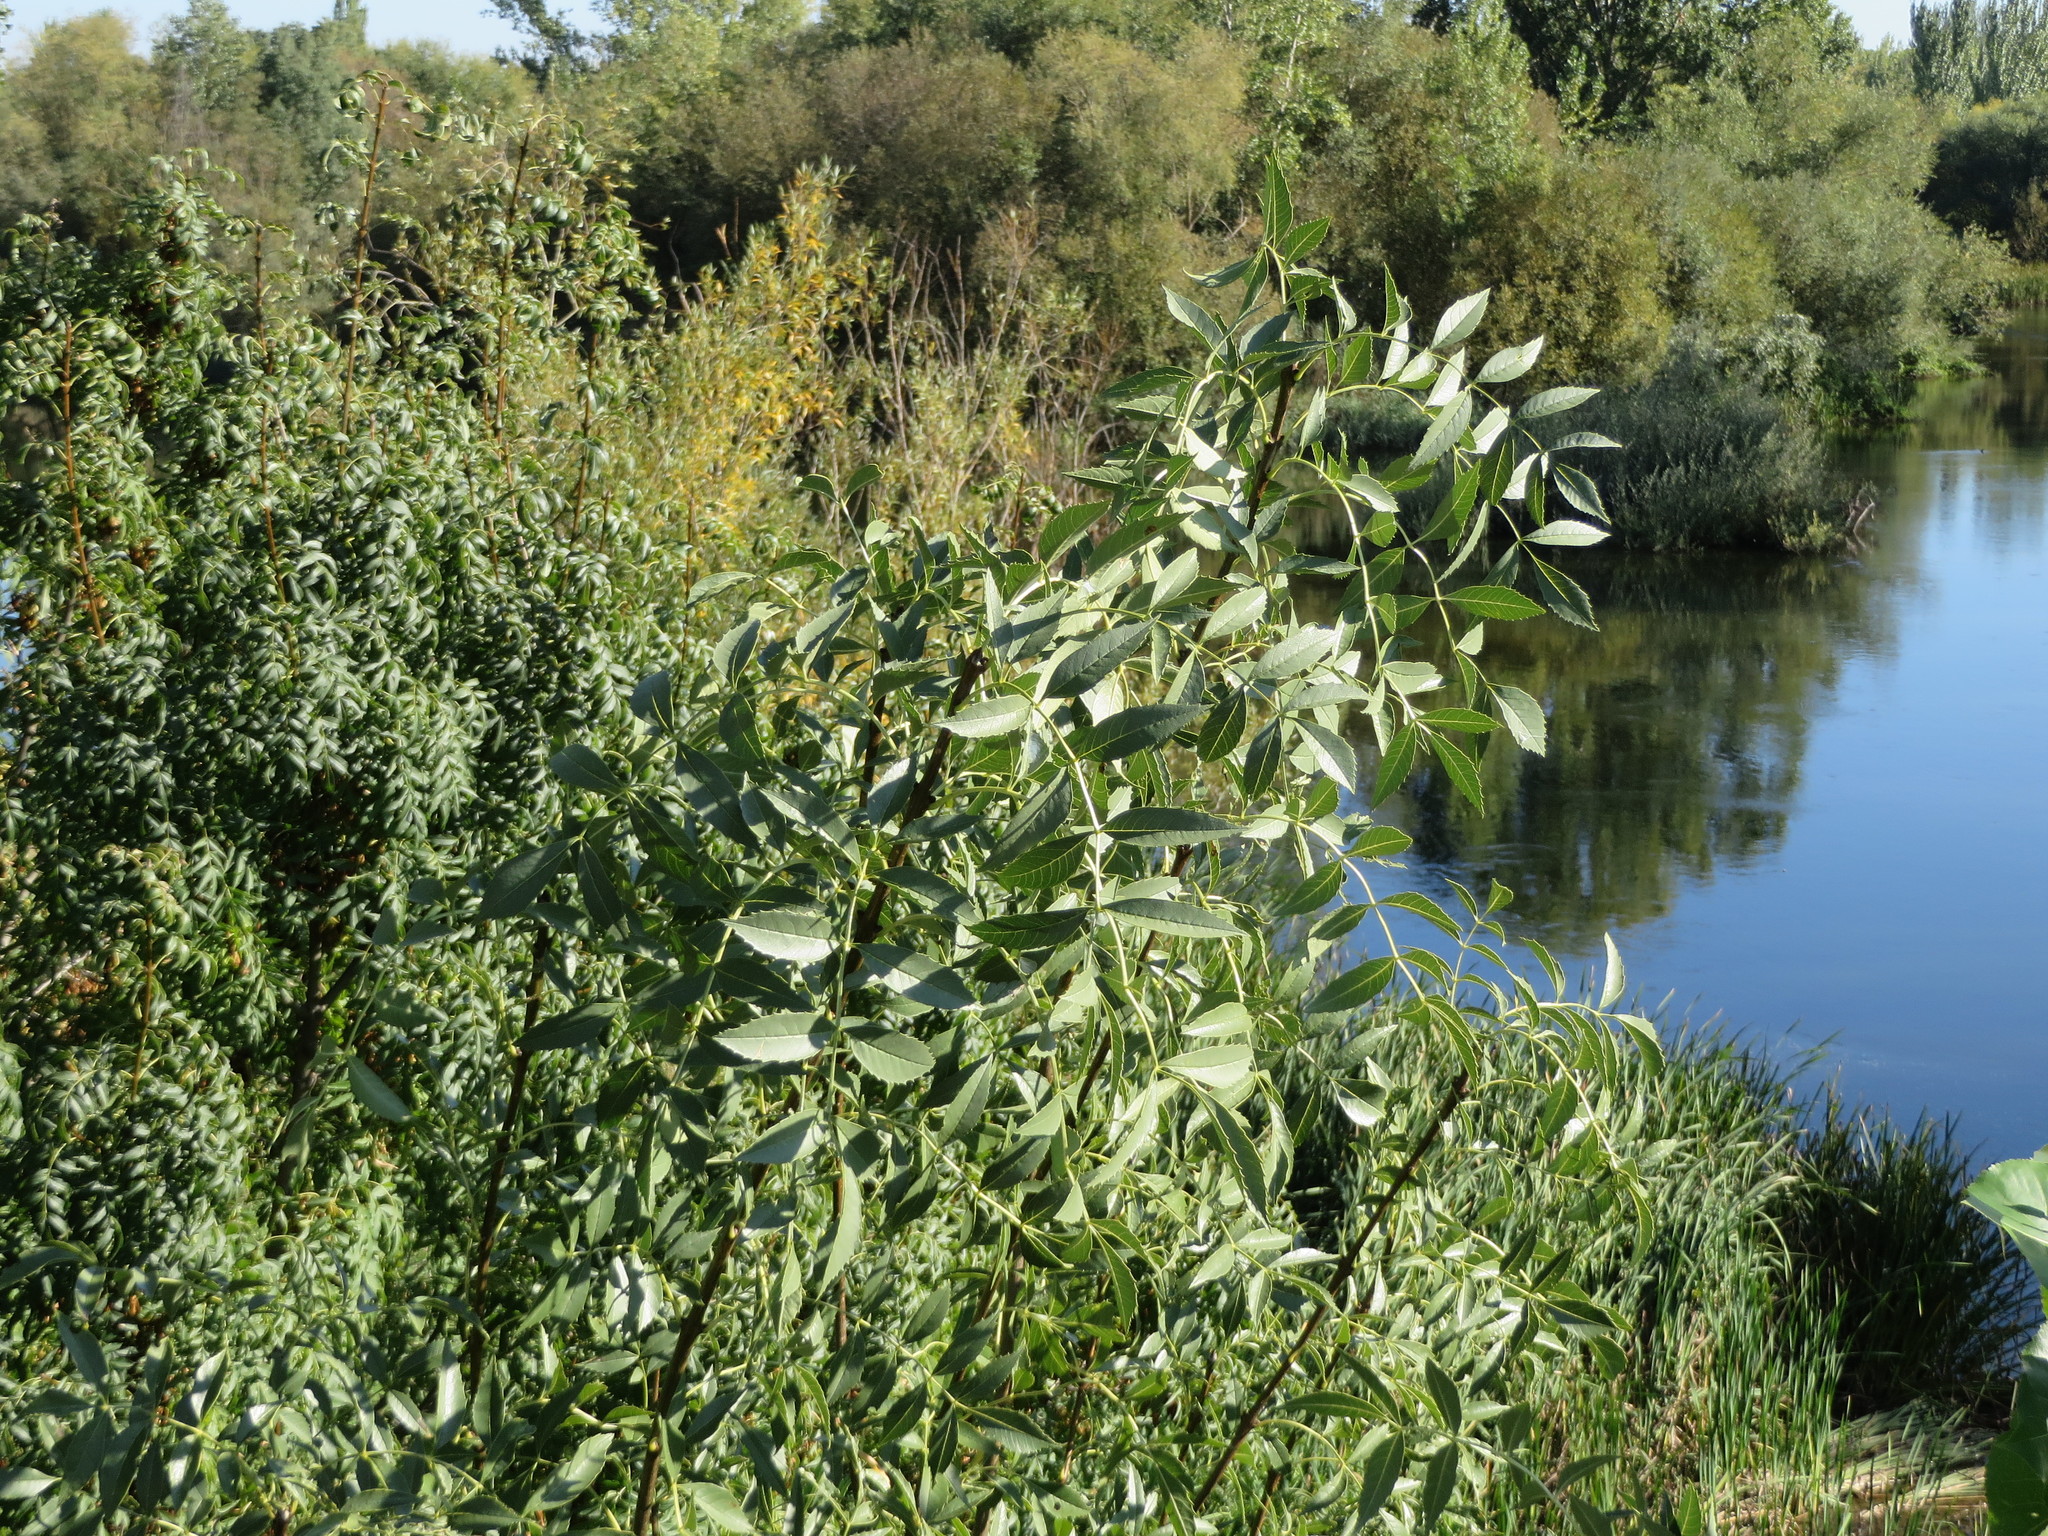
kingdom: Plantae
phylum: Tracheophyta
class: Magnoliopsida
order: Lamiales
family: Oleaceae
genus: Fraxinus
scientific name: Fraxinus angustifolia
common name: Narrow-leafed ash
